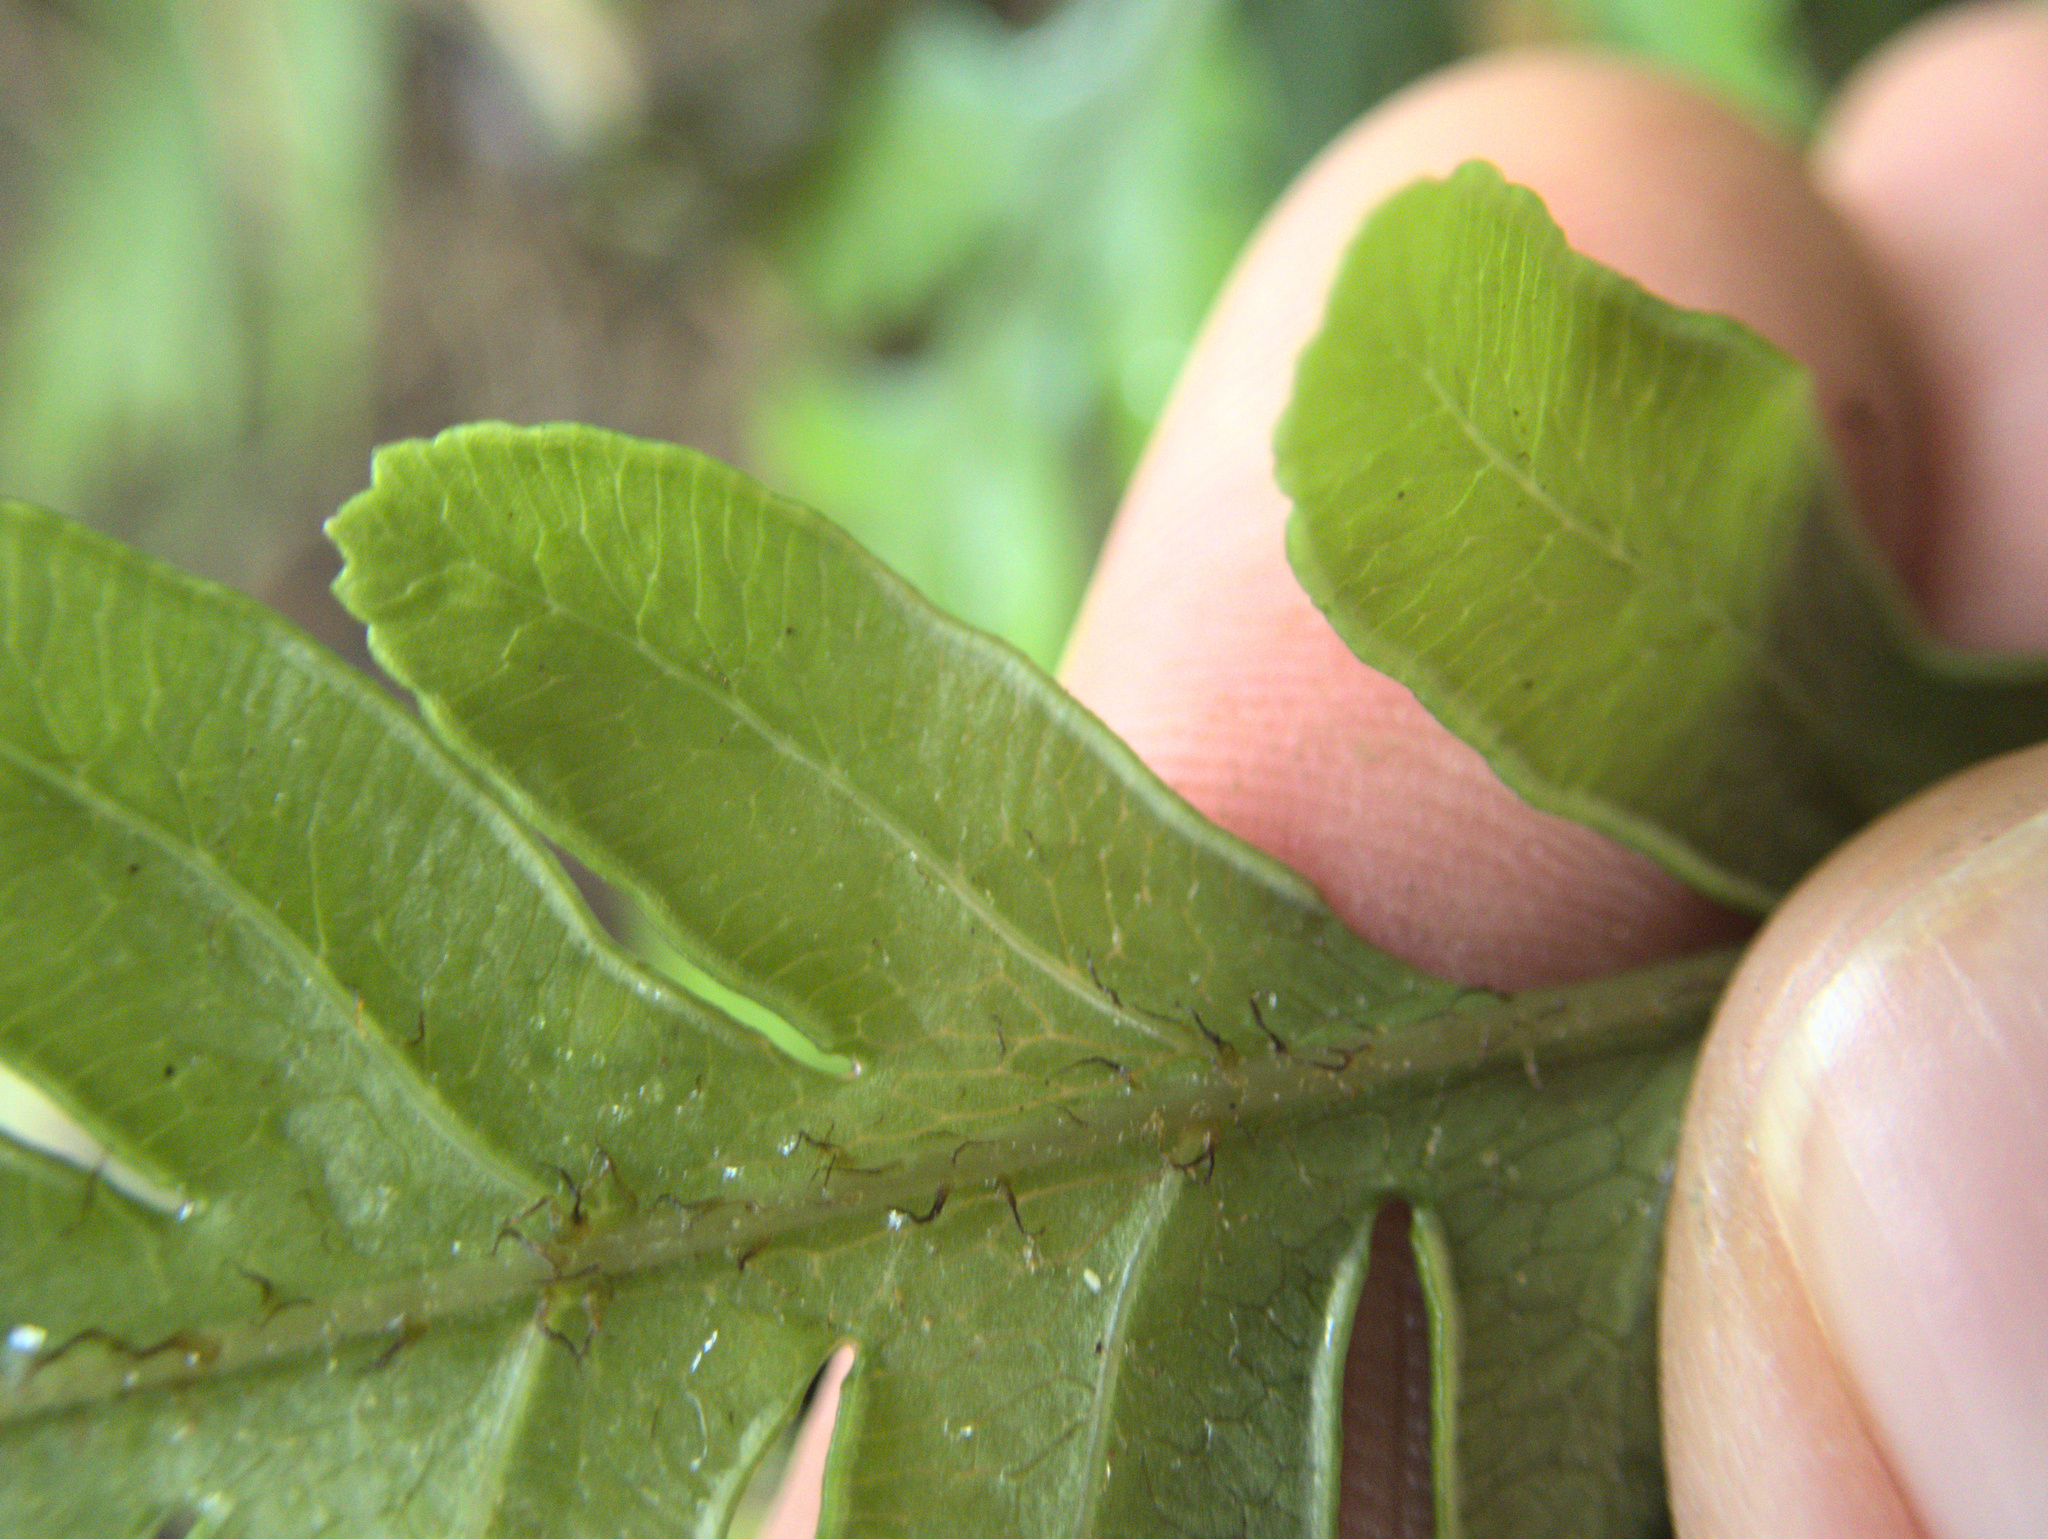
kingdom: Plantae
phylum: Tracheophyta
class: Polypodiopsida
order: Polypodiales
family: Pteridaceae
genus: Pteris
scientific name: Pteris carsei
